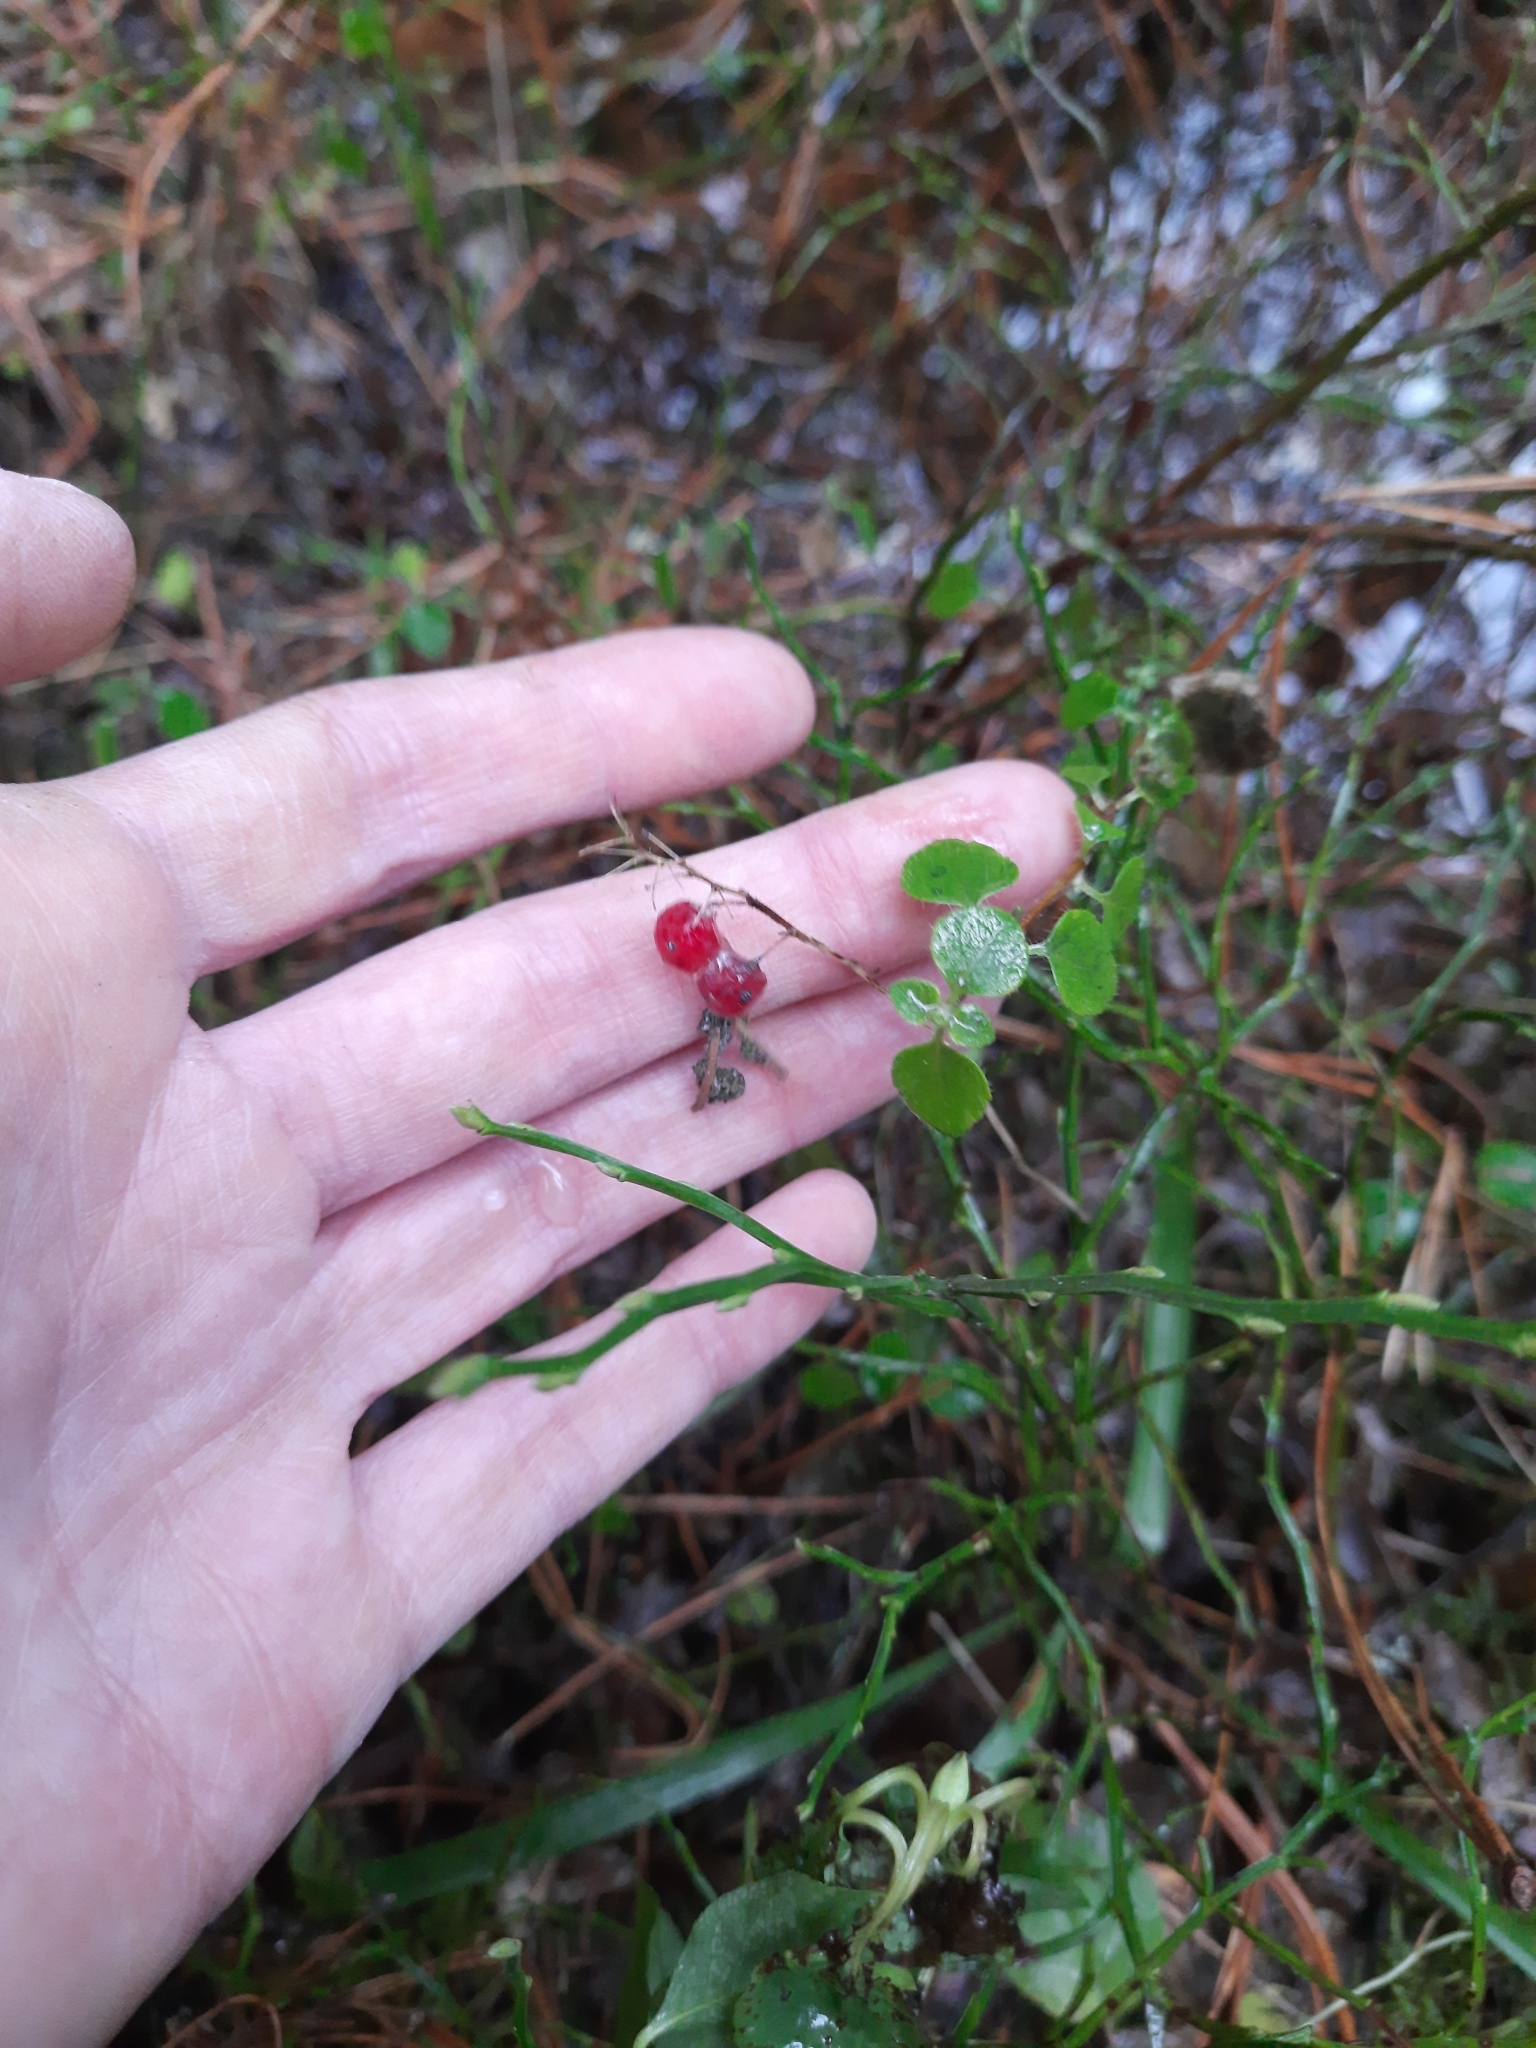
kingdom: Plantae
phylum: Tracheophyta
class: Liliopsida
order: Asparagales
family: Asparagaceae
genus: Maianthemum
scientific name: Maianthemum bifolium
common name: May lily
